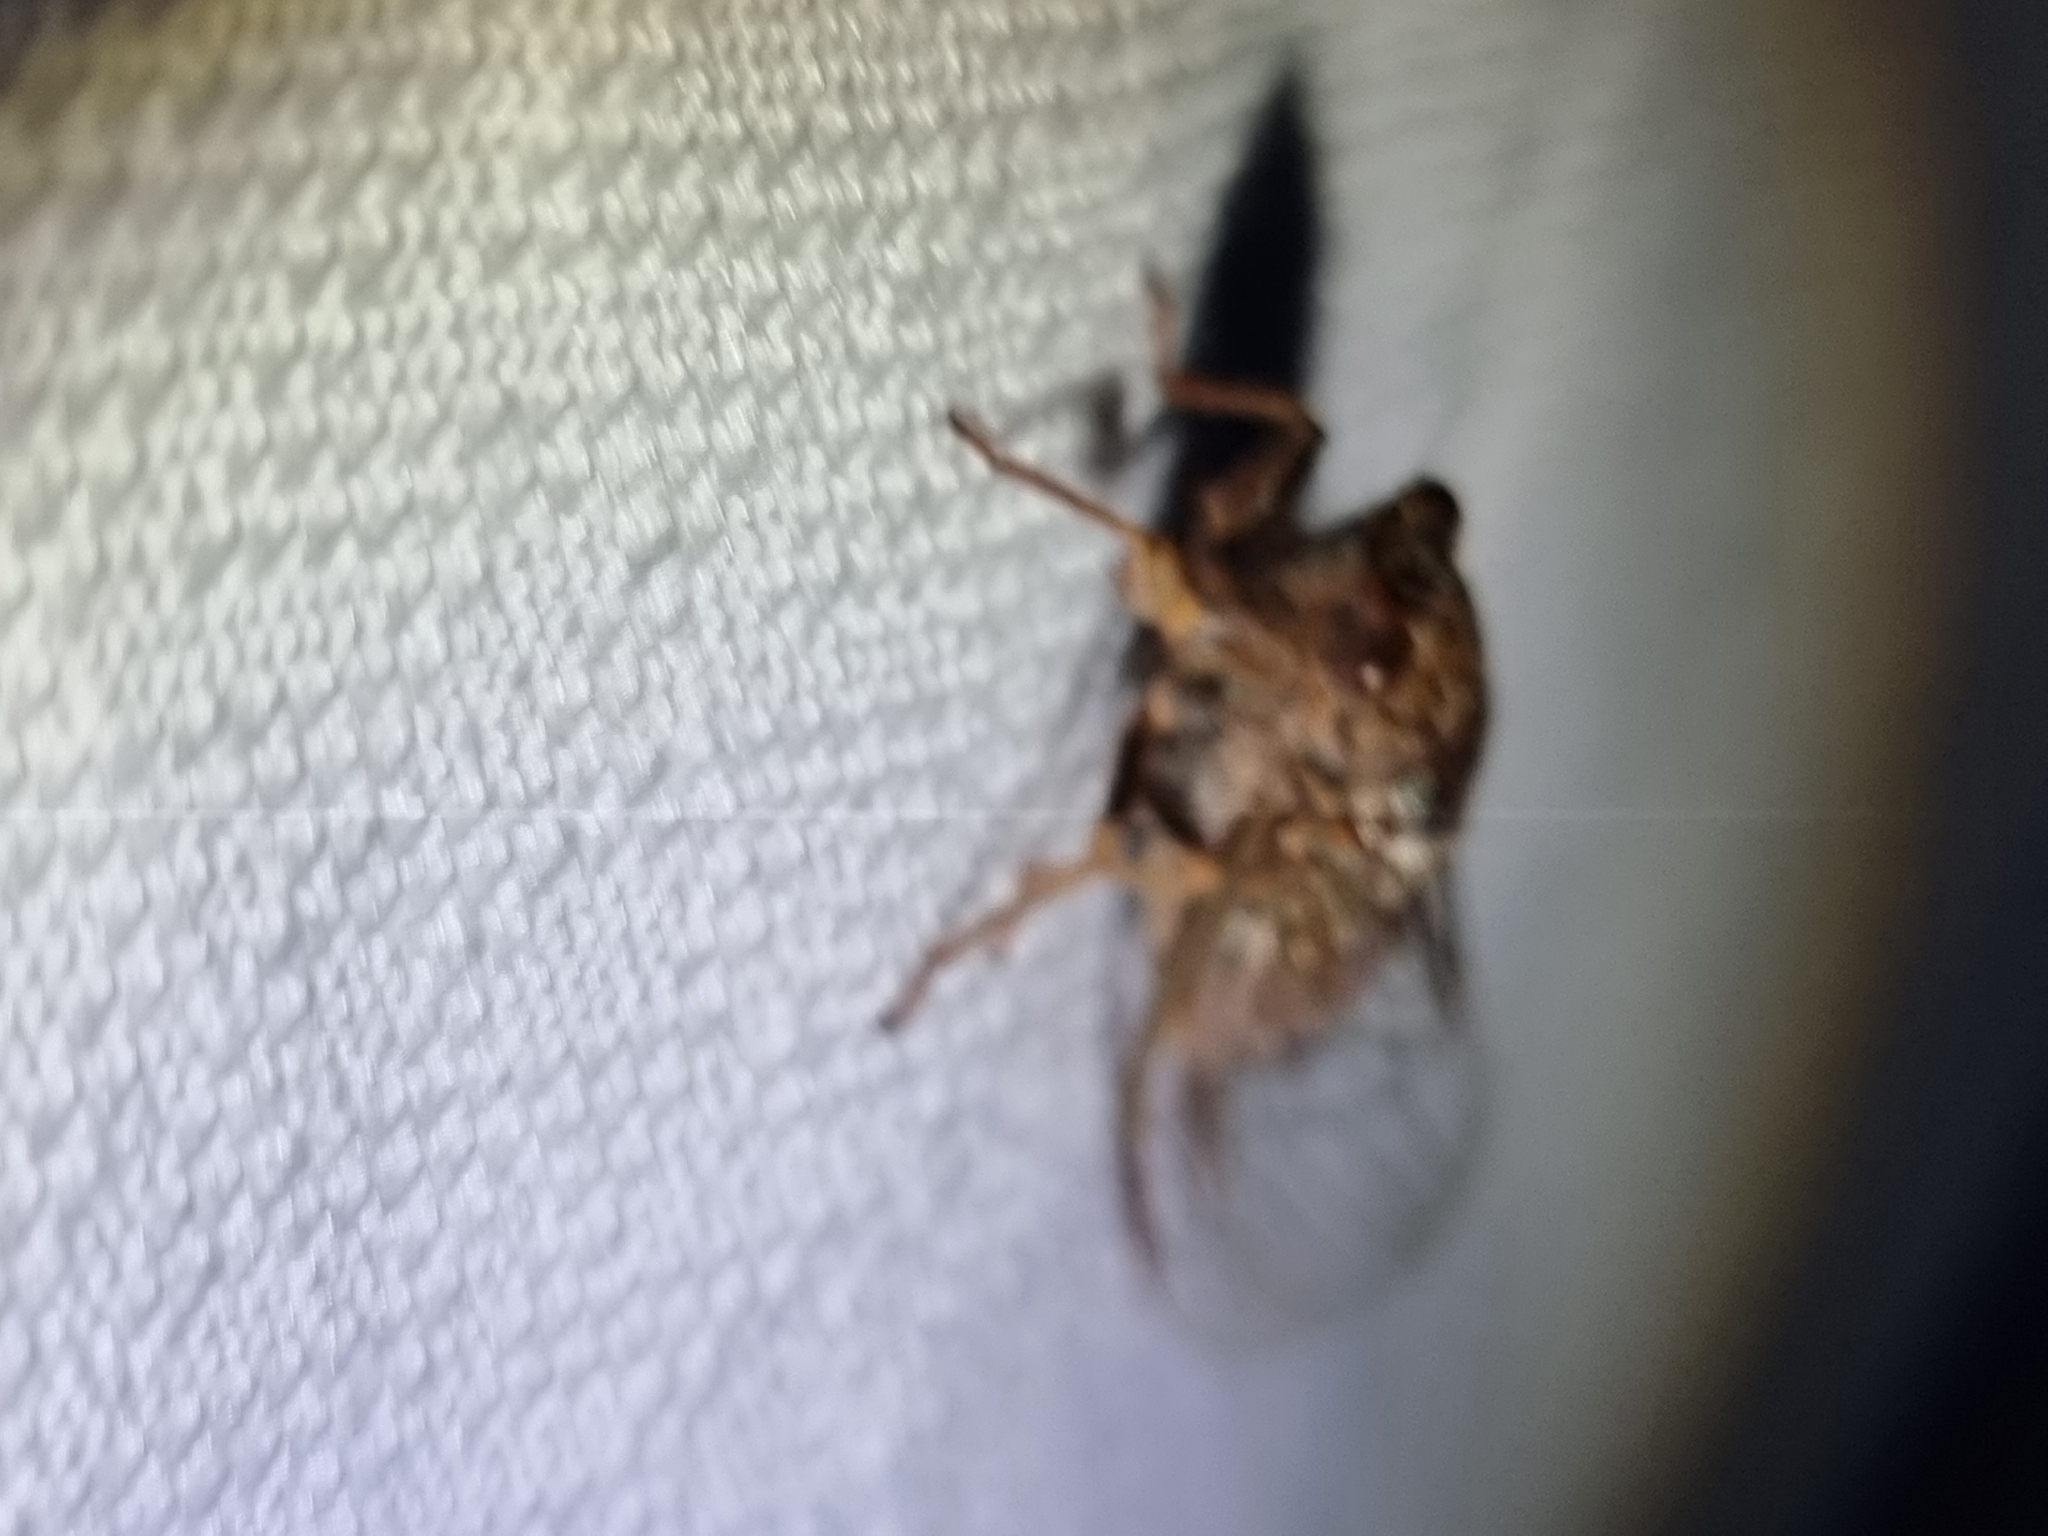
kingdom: Animalia
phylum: Arthropoda
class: Insecta
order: Hemiptera
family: Cicadidae
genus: Birrima
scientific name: Birrima varians
